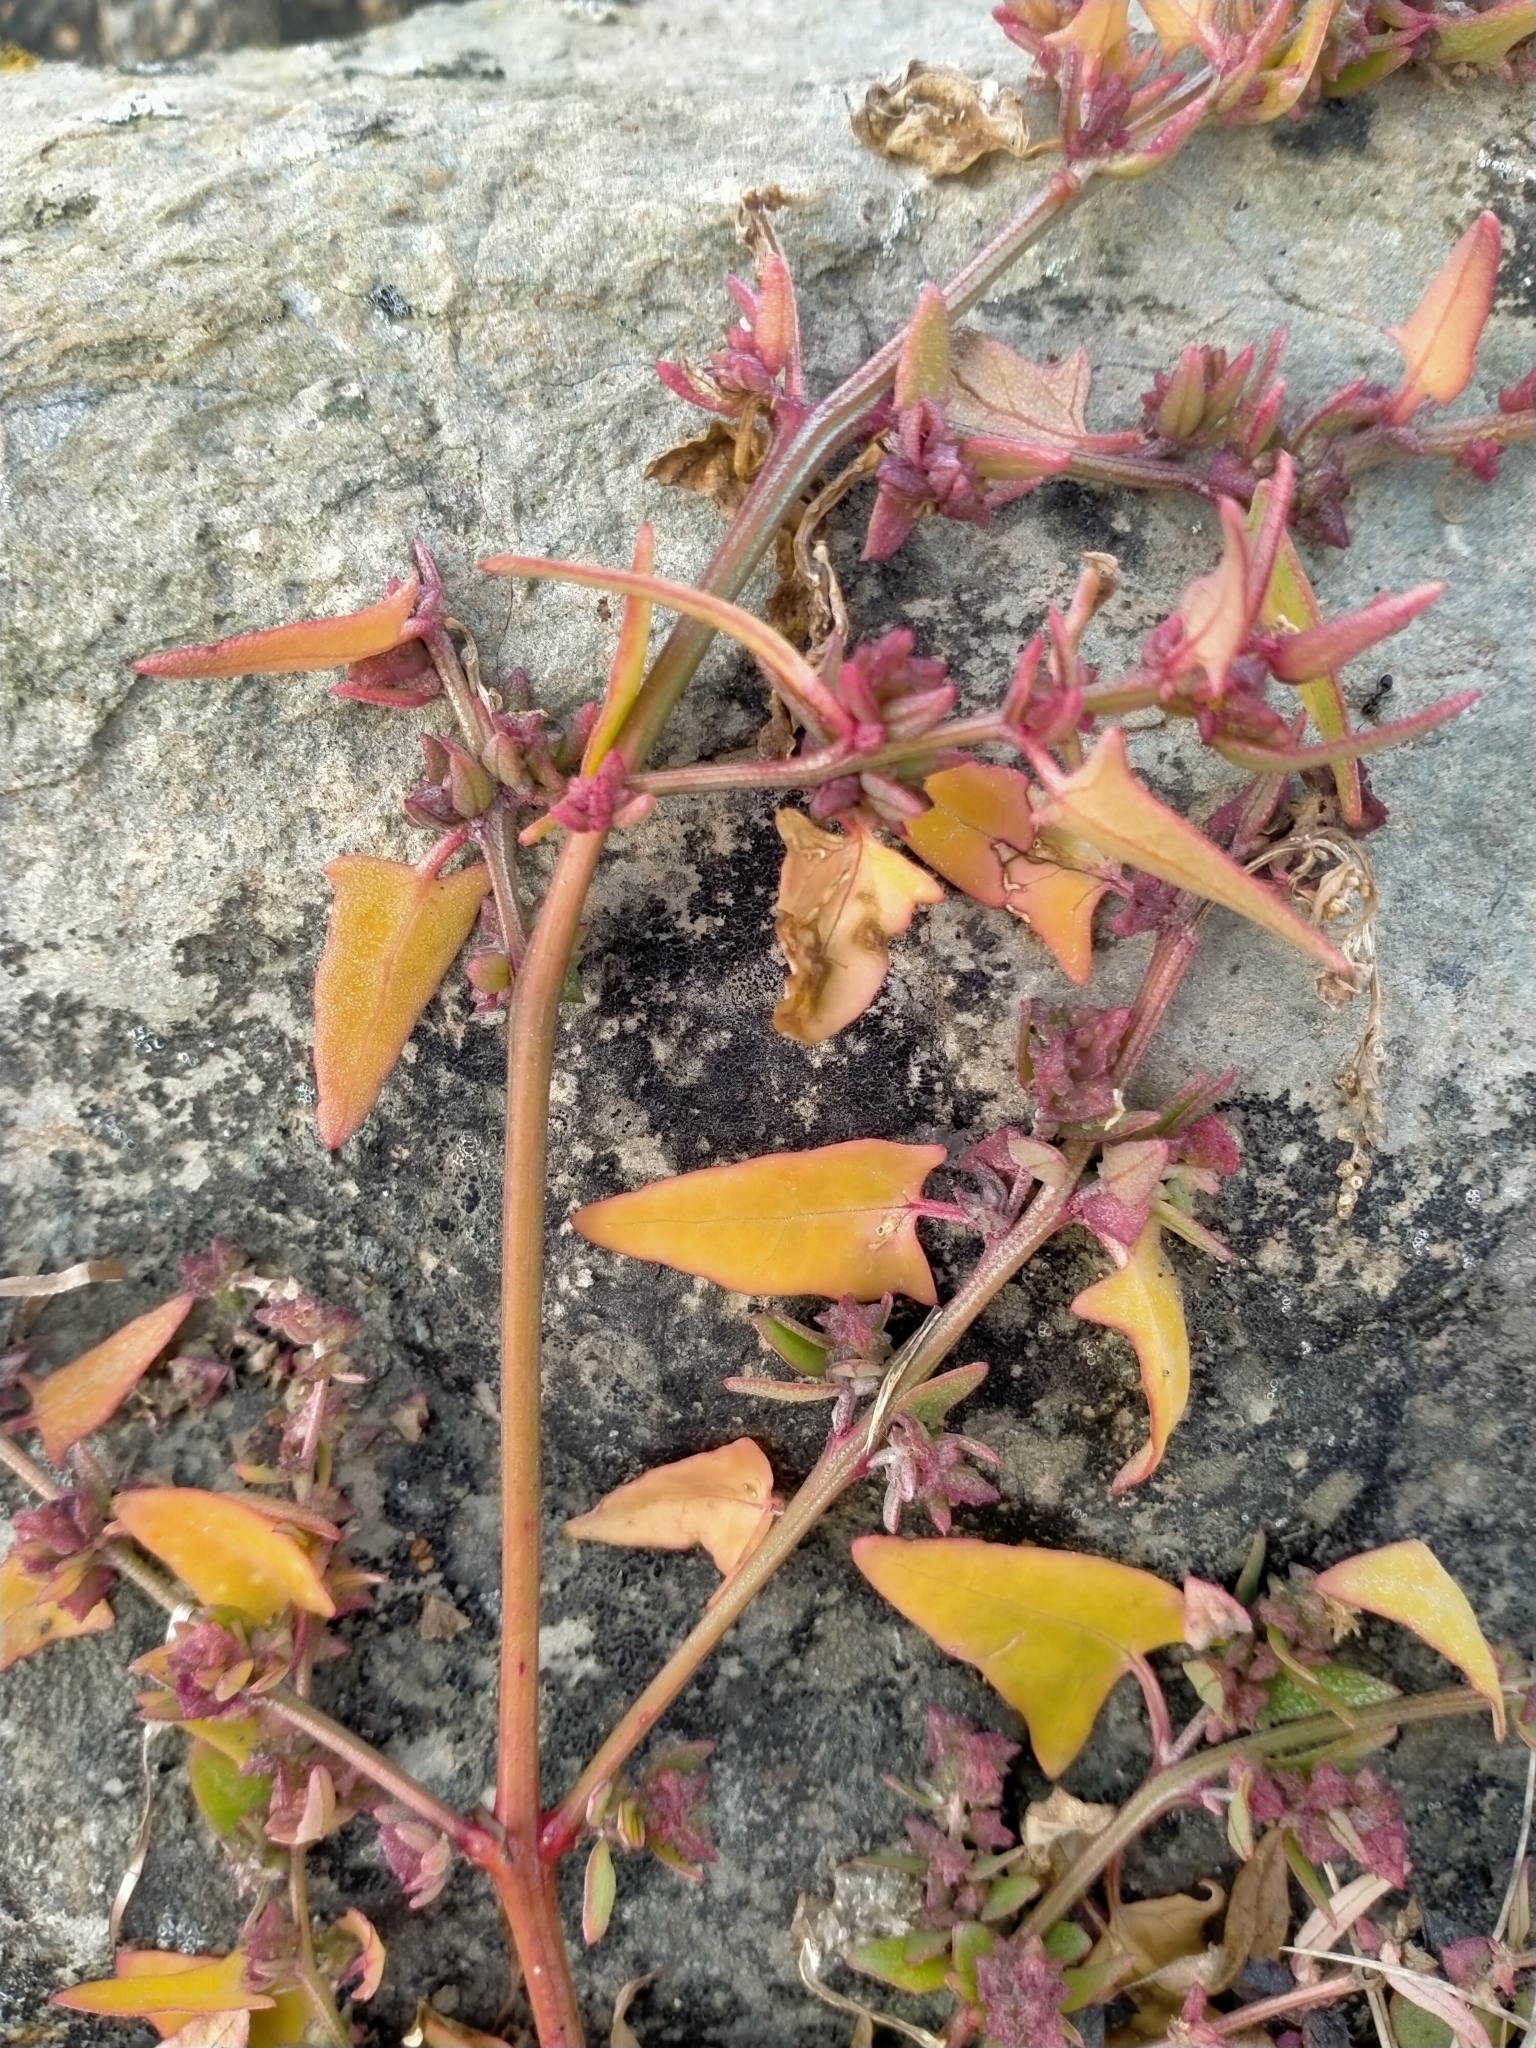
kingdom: Plantae
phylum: Tracheophyta
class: Magnoliopsida
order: Caryophyllales
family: Amaranthaceae
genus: Atriplex
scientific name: Atriplex prostrata
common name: Spear-leaved orache
